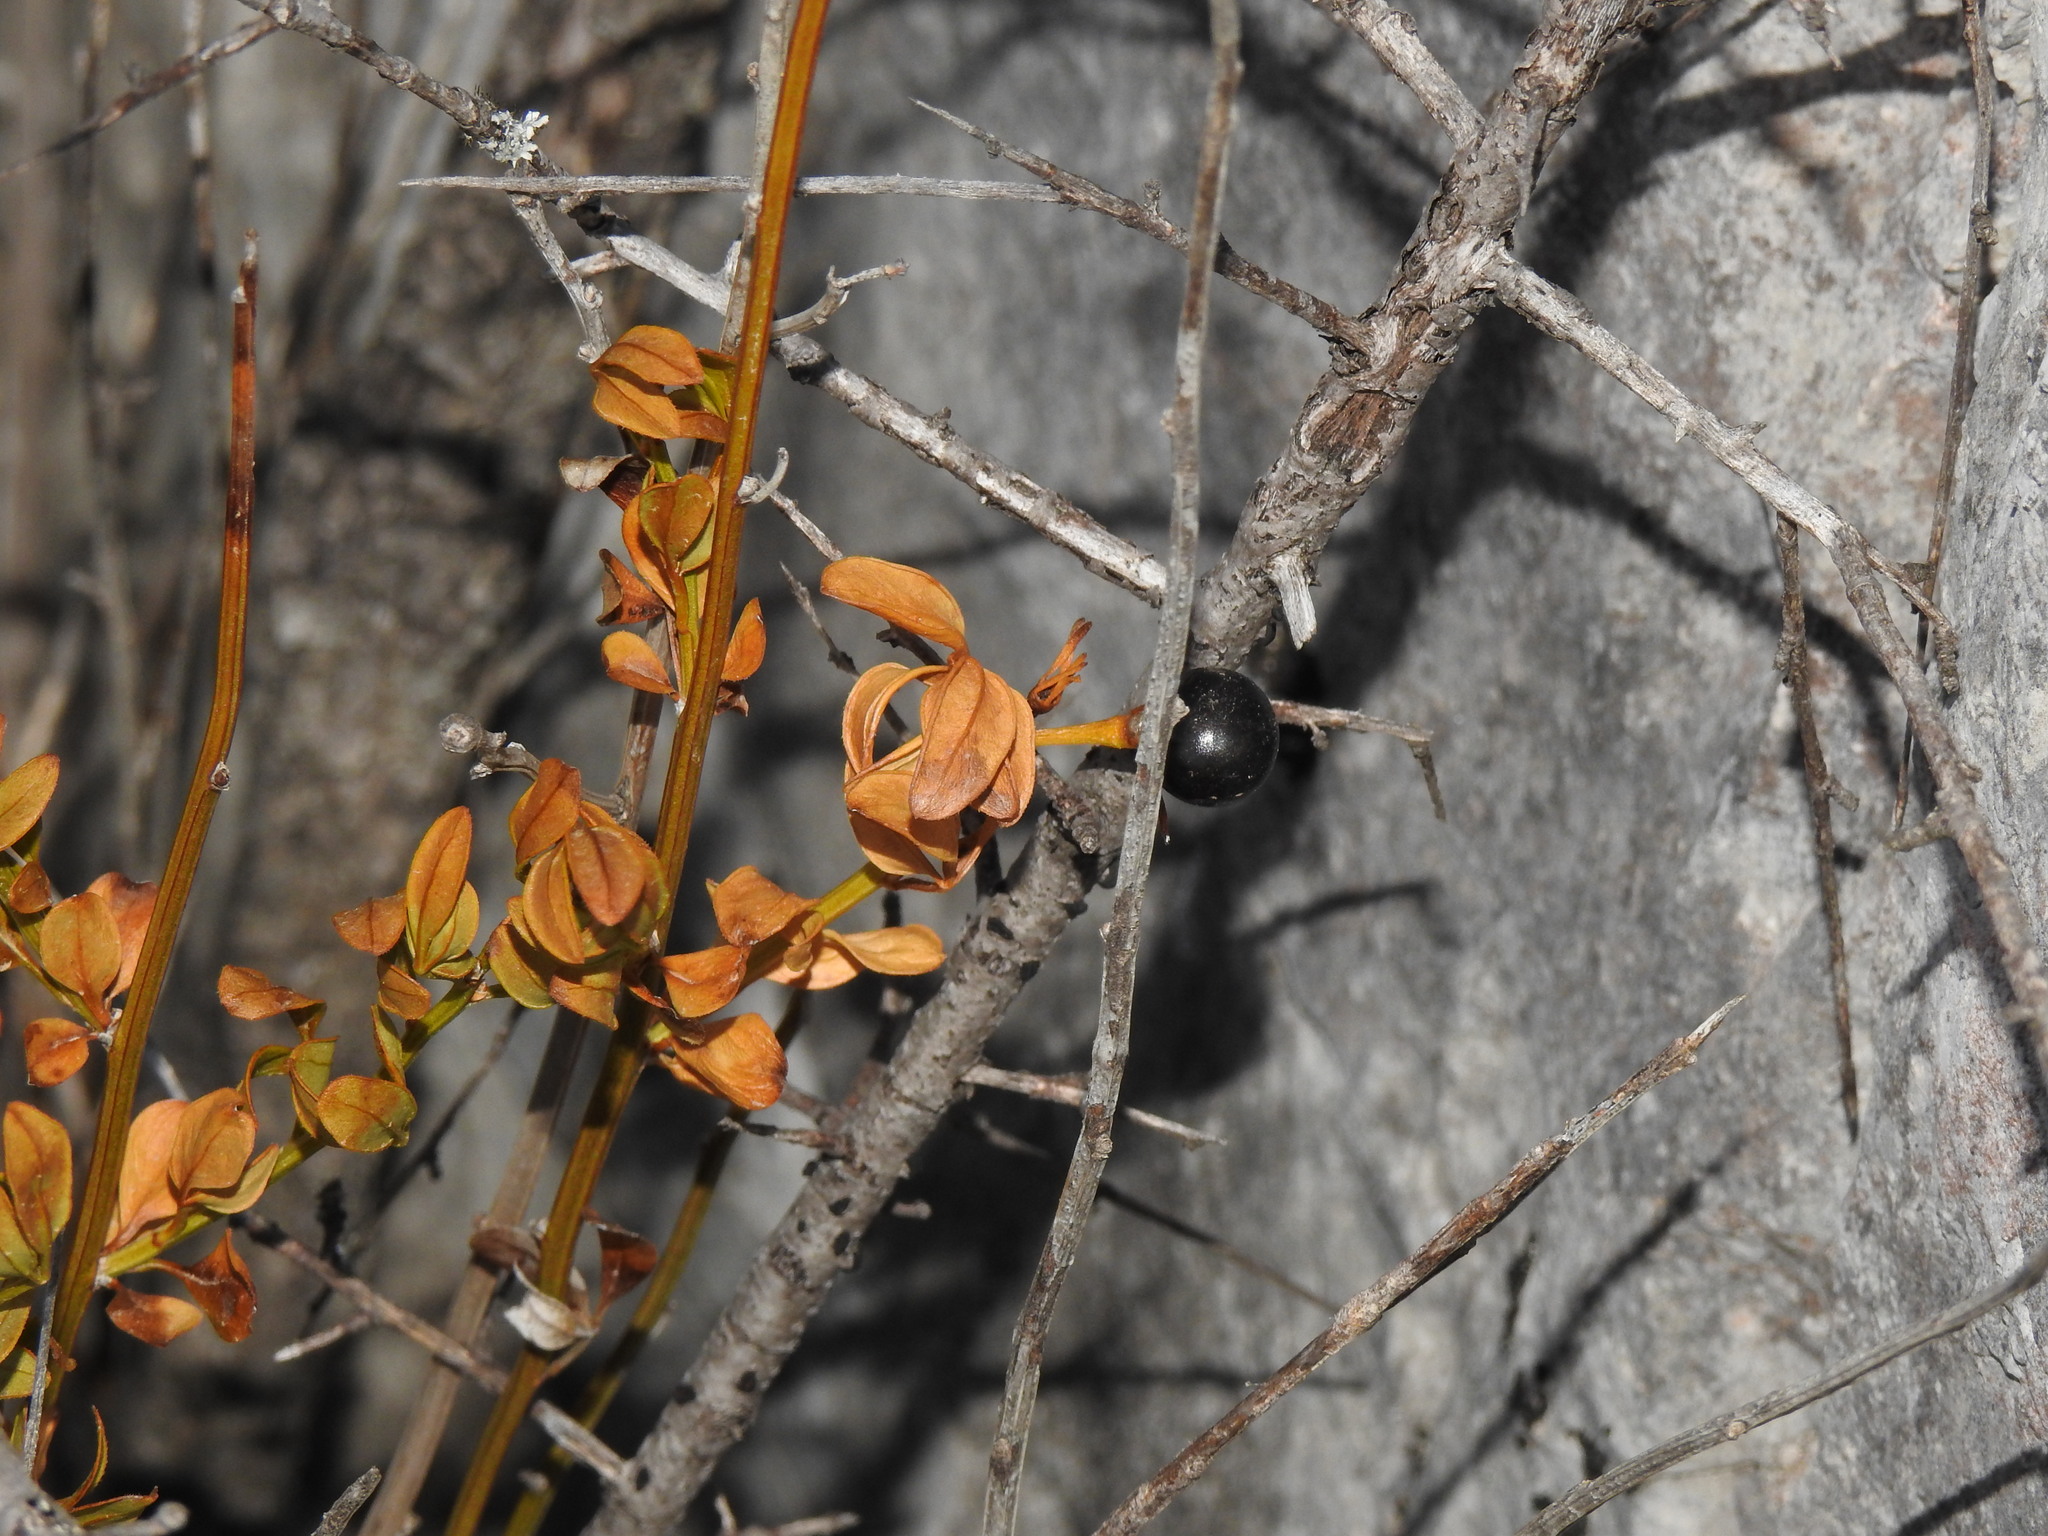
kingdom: Plantae
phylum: Tracheophyta
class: Magnoliopsida
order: Lamiales
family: Oleaceae
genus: Chrysojasminum
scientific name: Chrysojasminum fruticans
